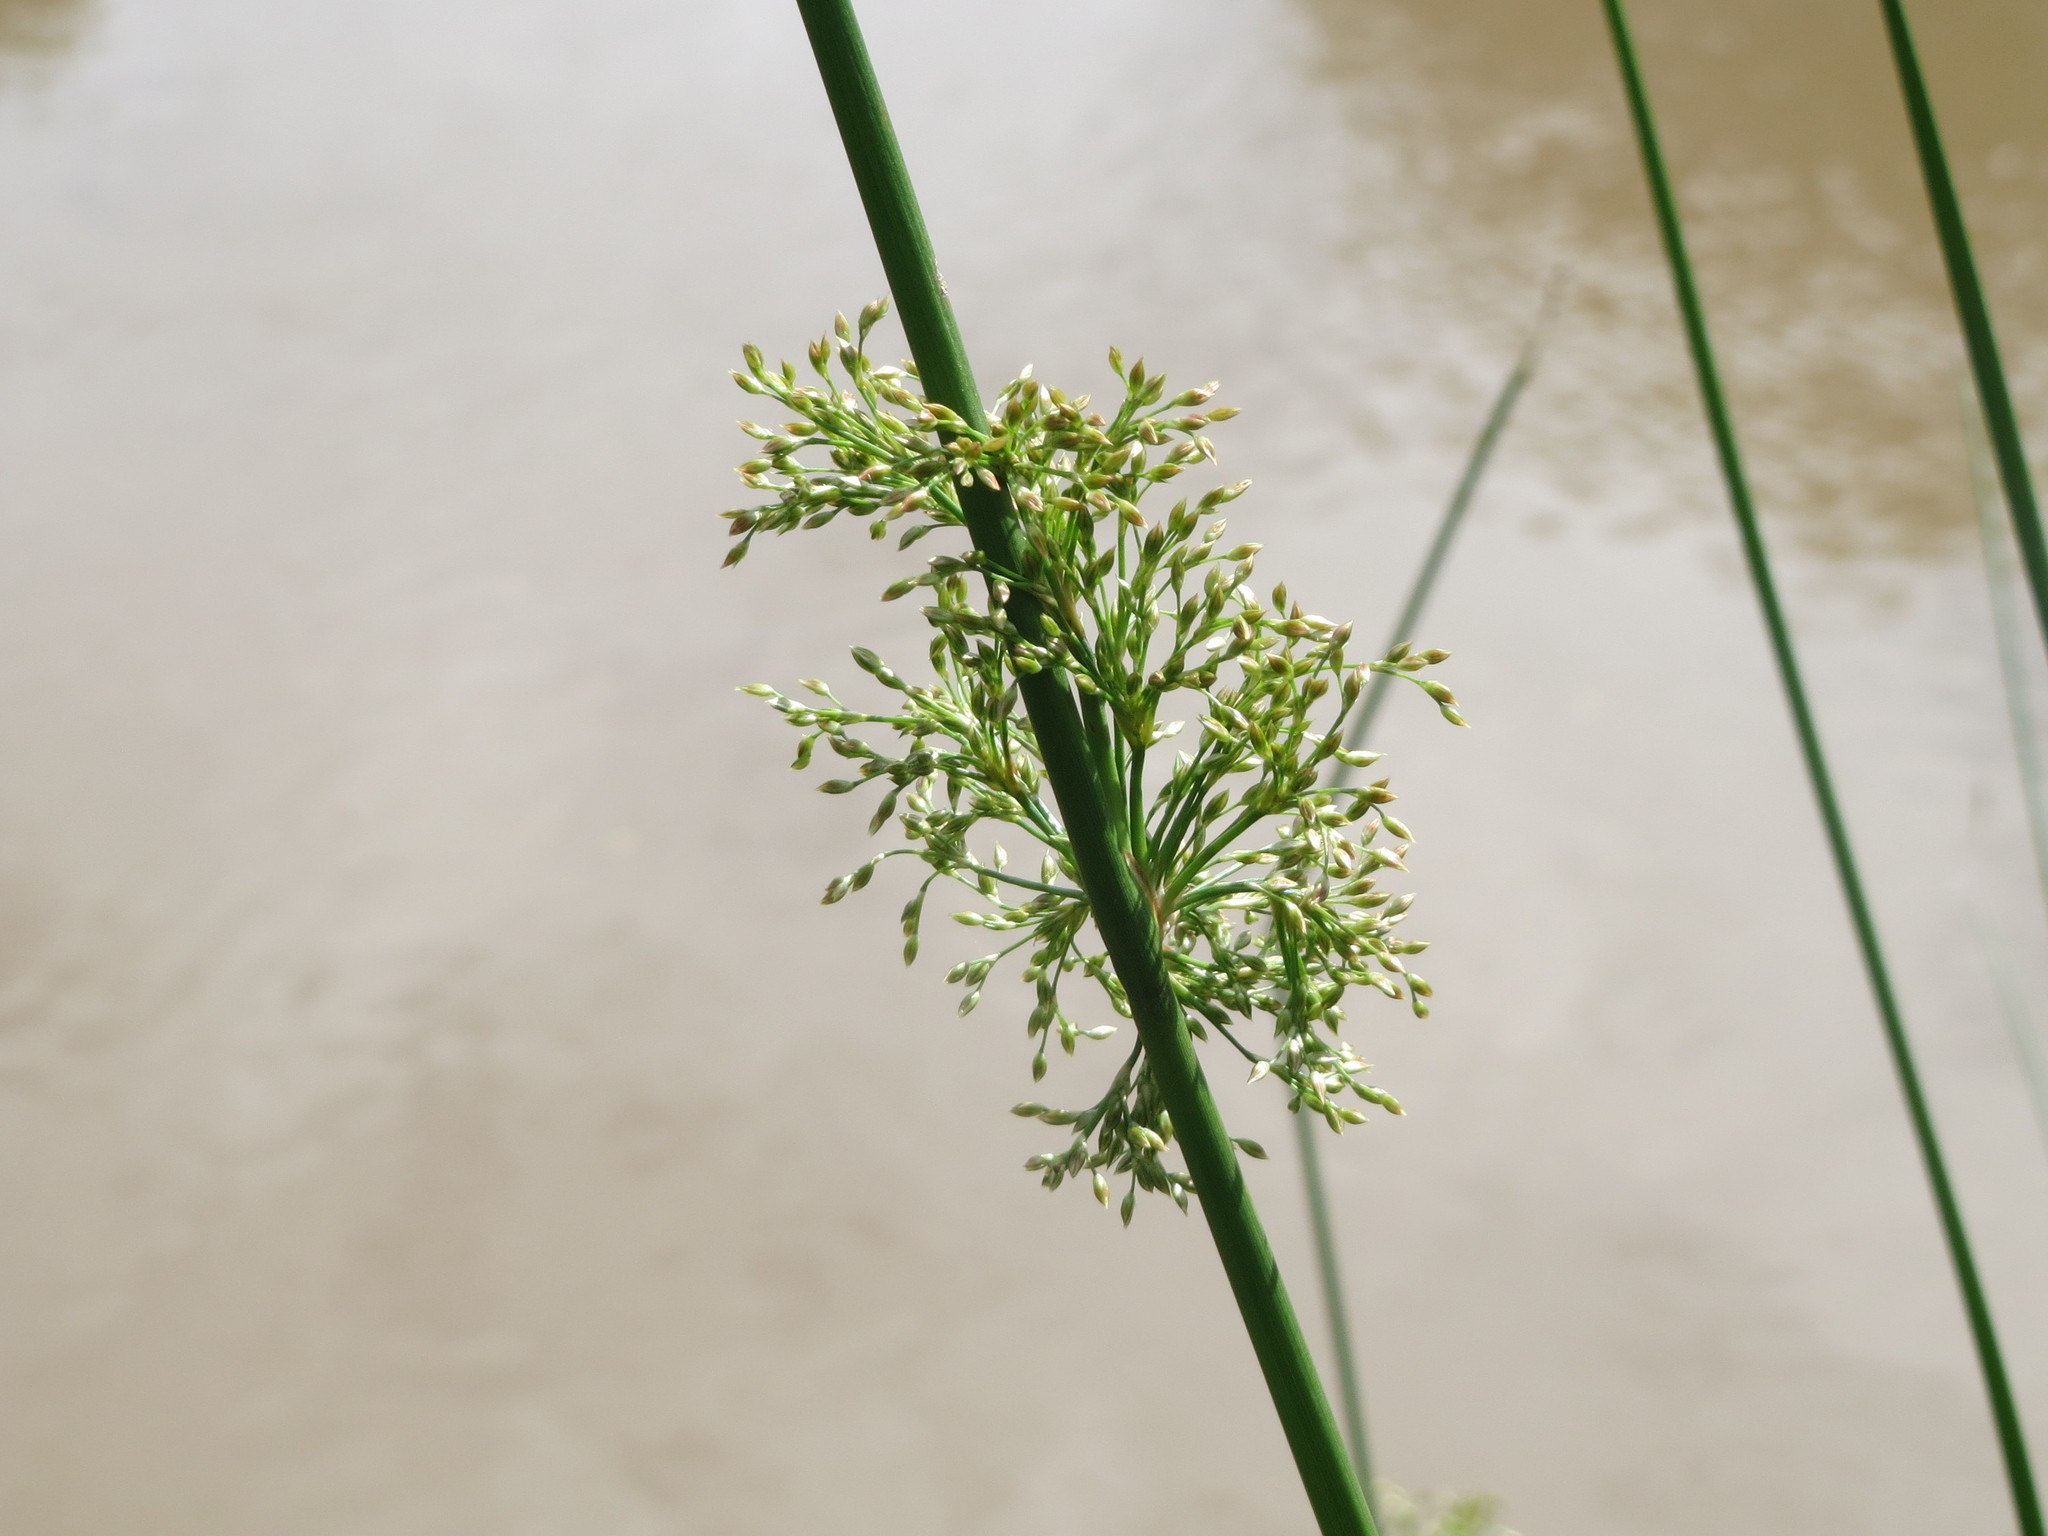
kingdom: Plantae
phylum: Tracheophyta
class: Liliopsida
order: Poales
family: Juncaceae
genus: Juncus
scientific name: Juncus effusus
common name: Soft rush
